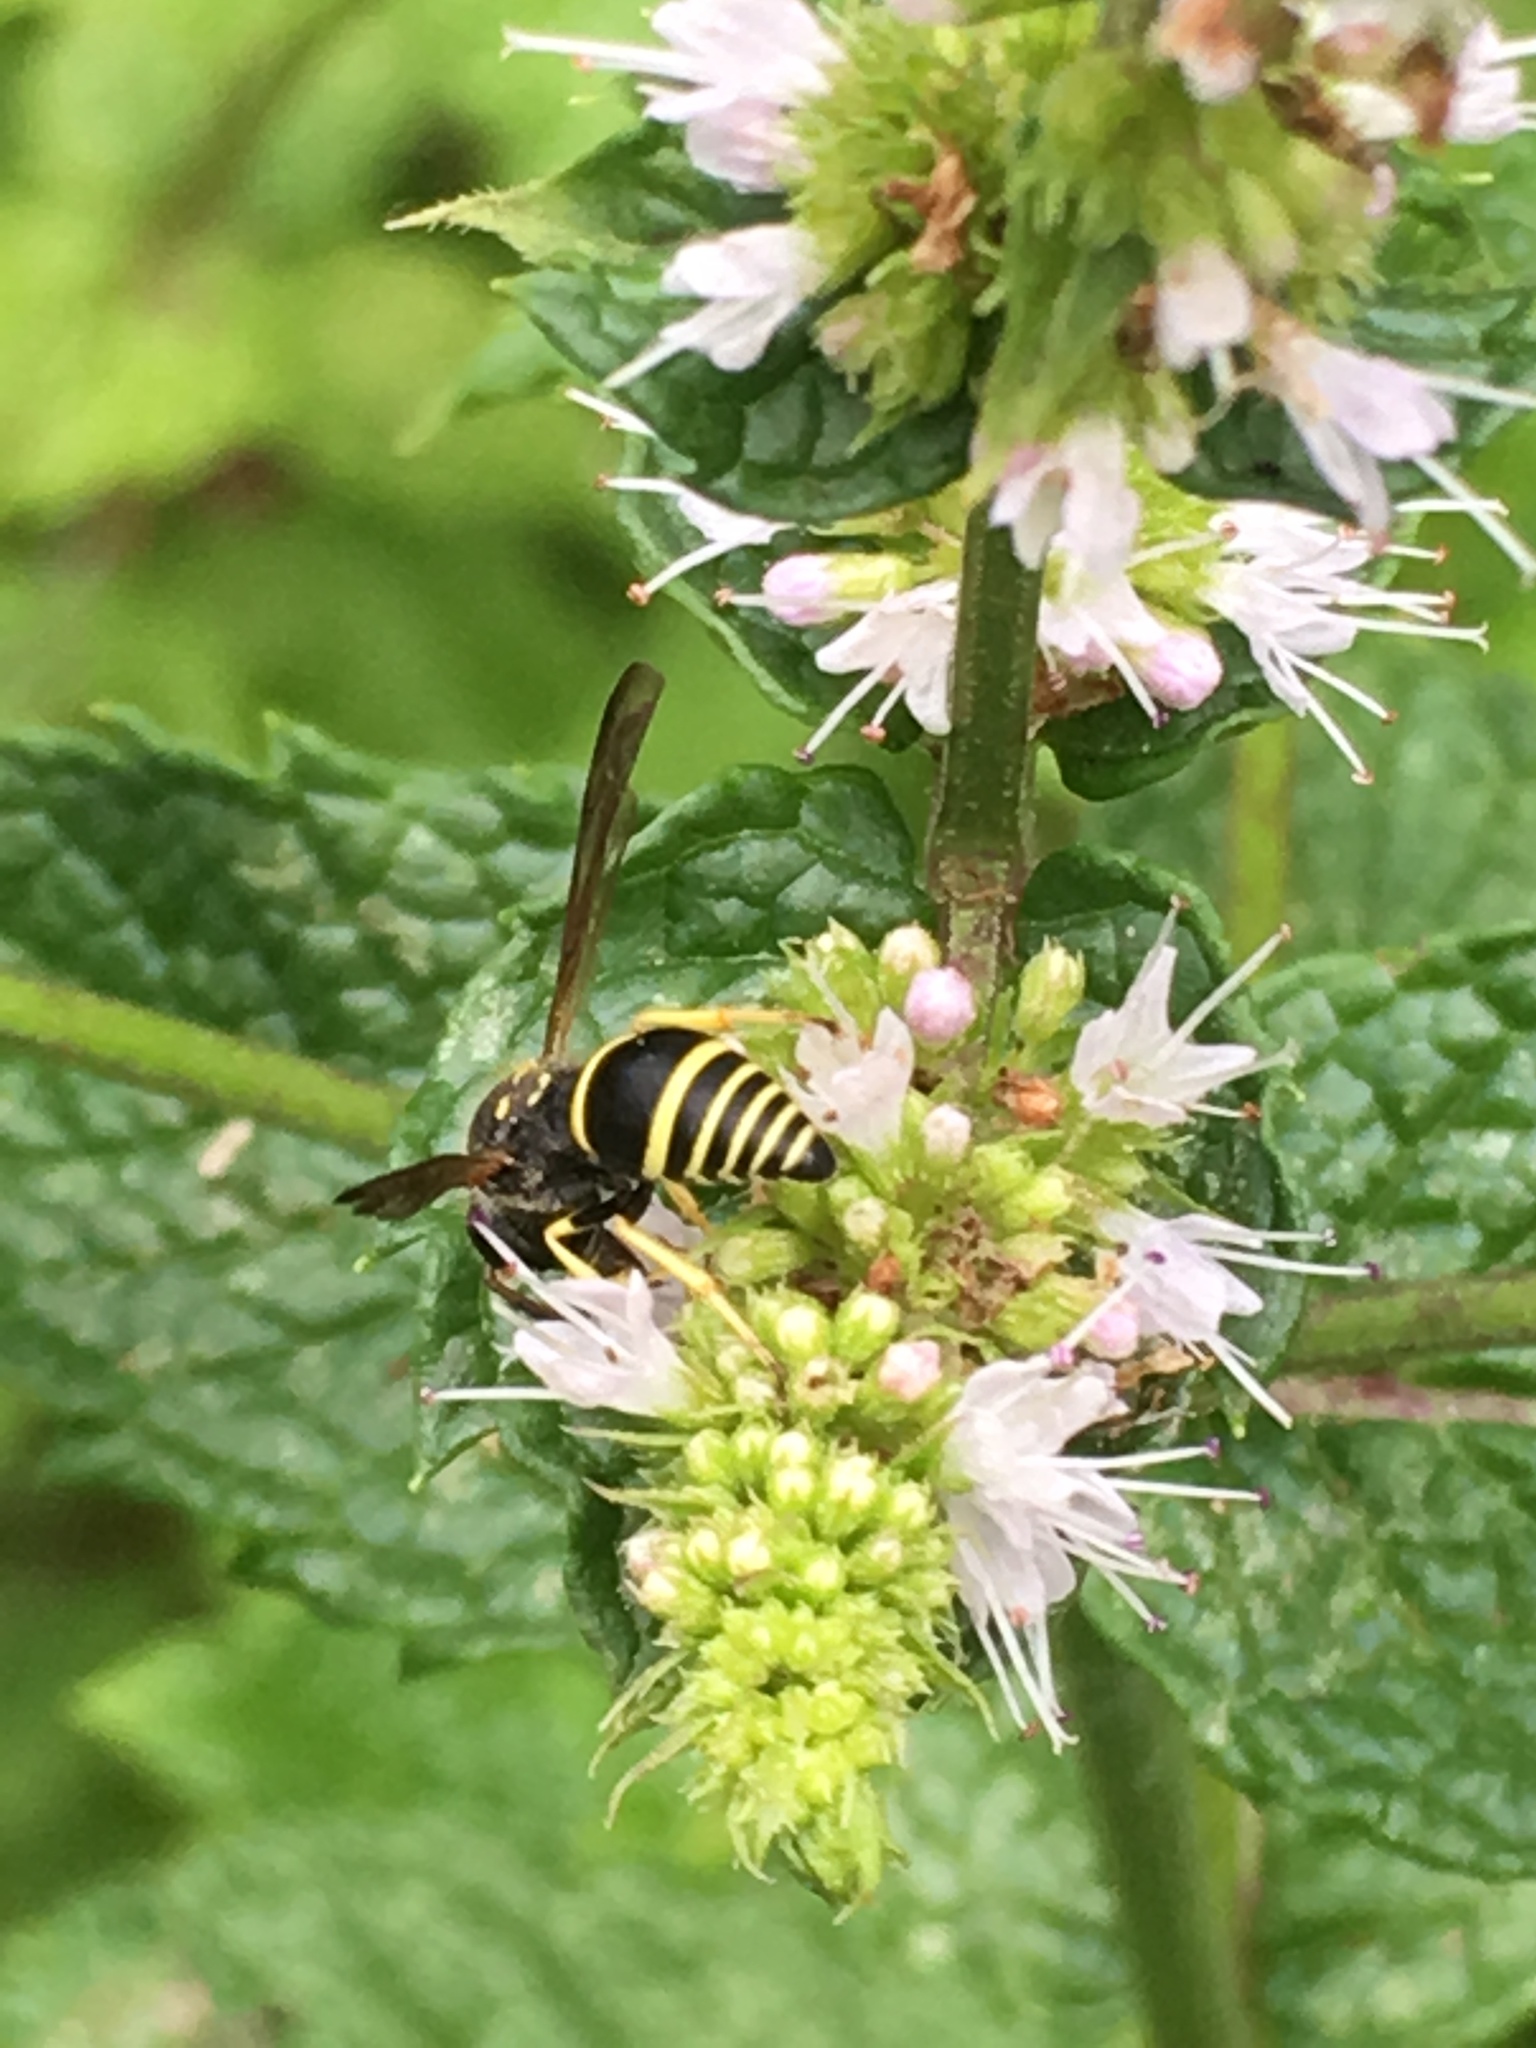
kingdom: Animalia
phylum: Arthropoda
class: Insecta
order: Hymenoptera
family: Vespidae
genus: Ancistrocerus
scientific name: Ancistrocerus
